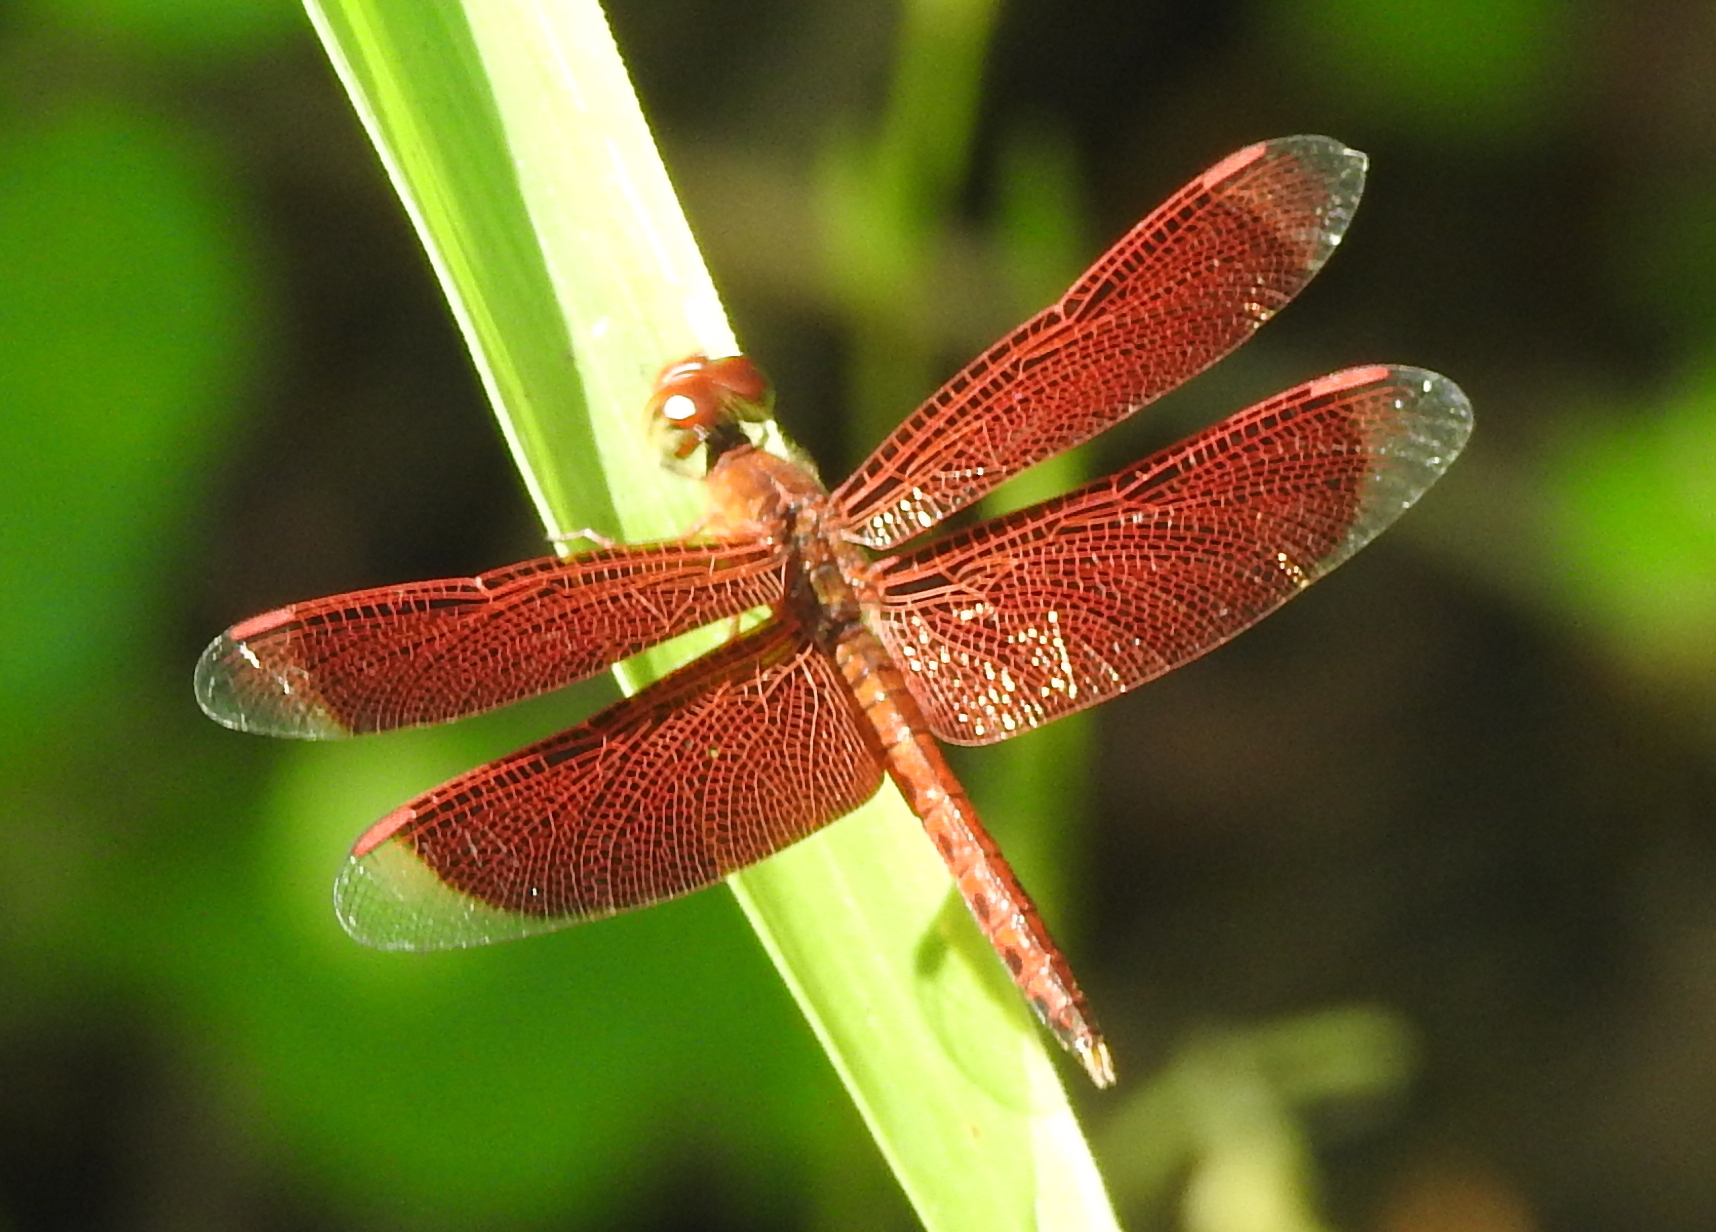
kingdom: Animalia
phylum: Arthropoda
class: Insecta
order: Odonata
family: Libellulidae
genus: Neurothemis
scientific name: Neurothemis fluctuans
